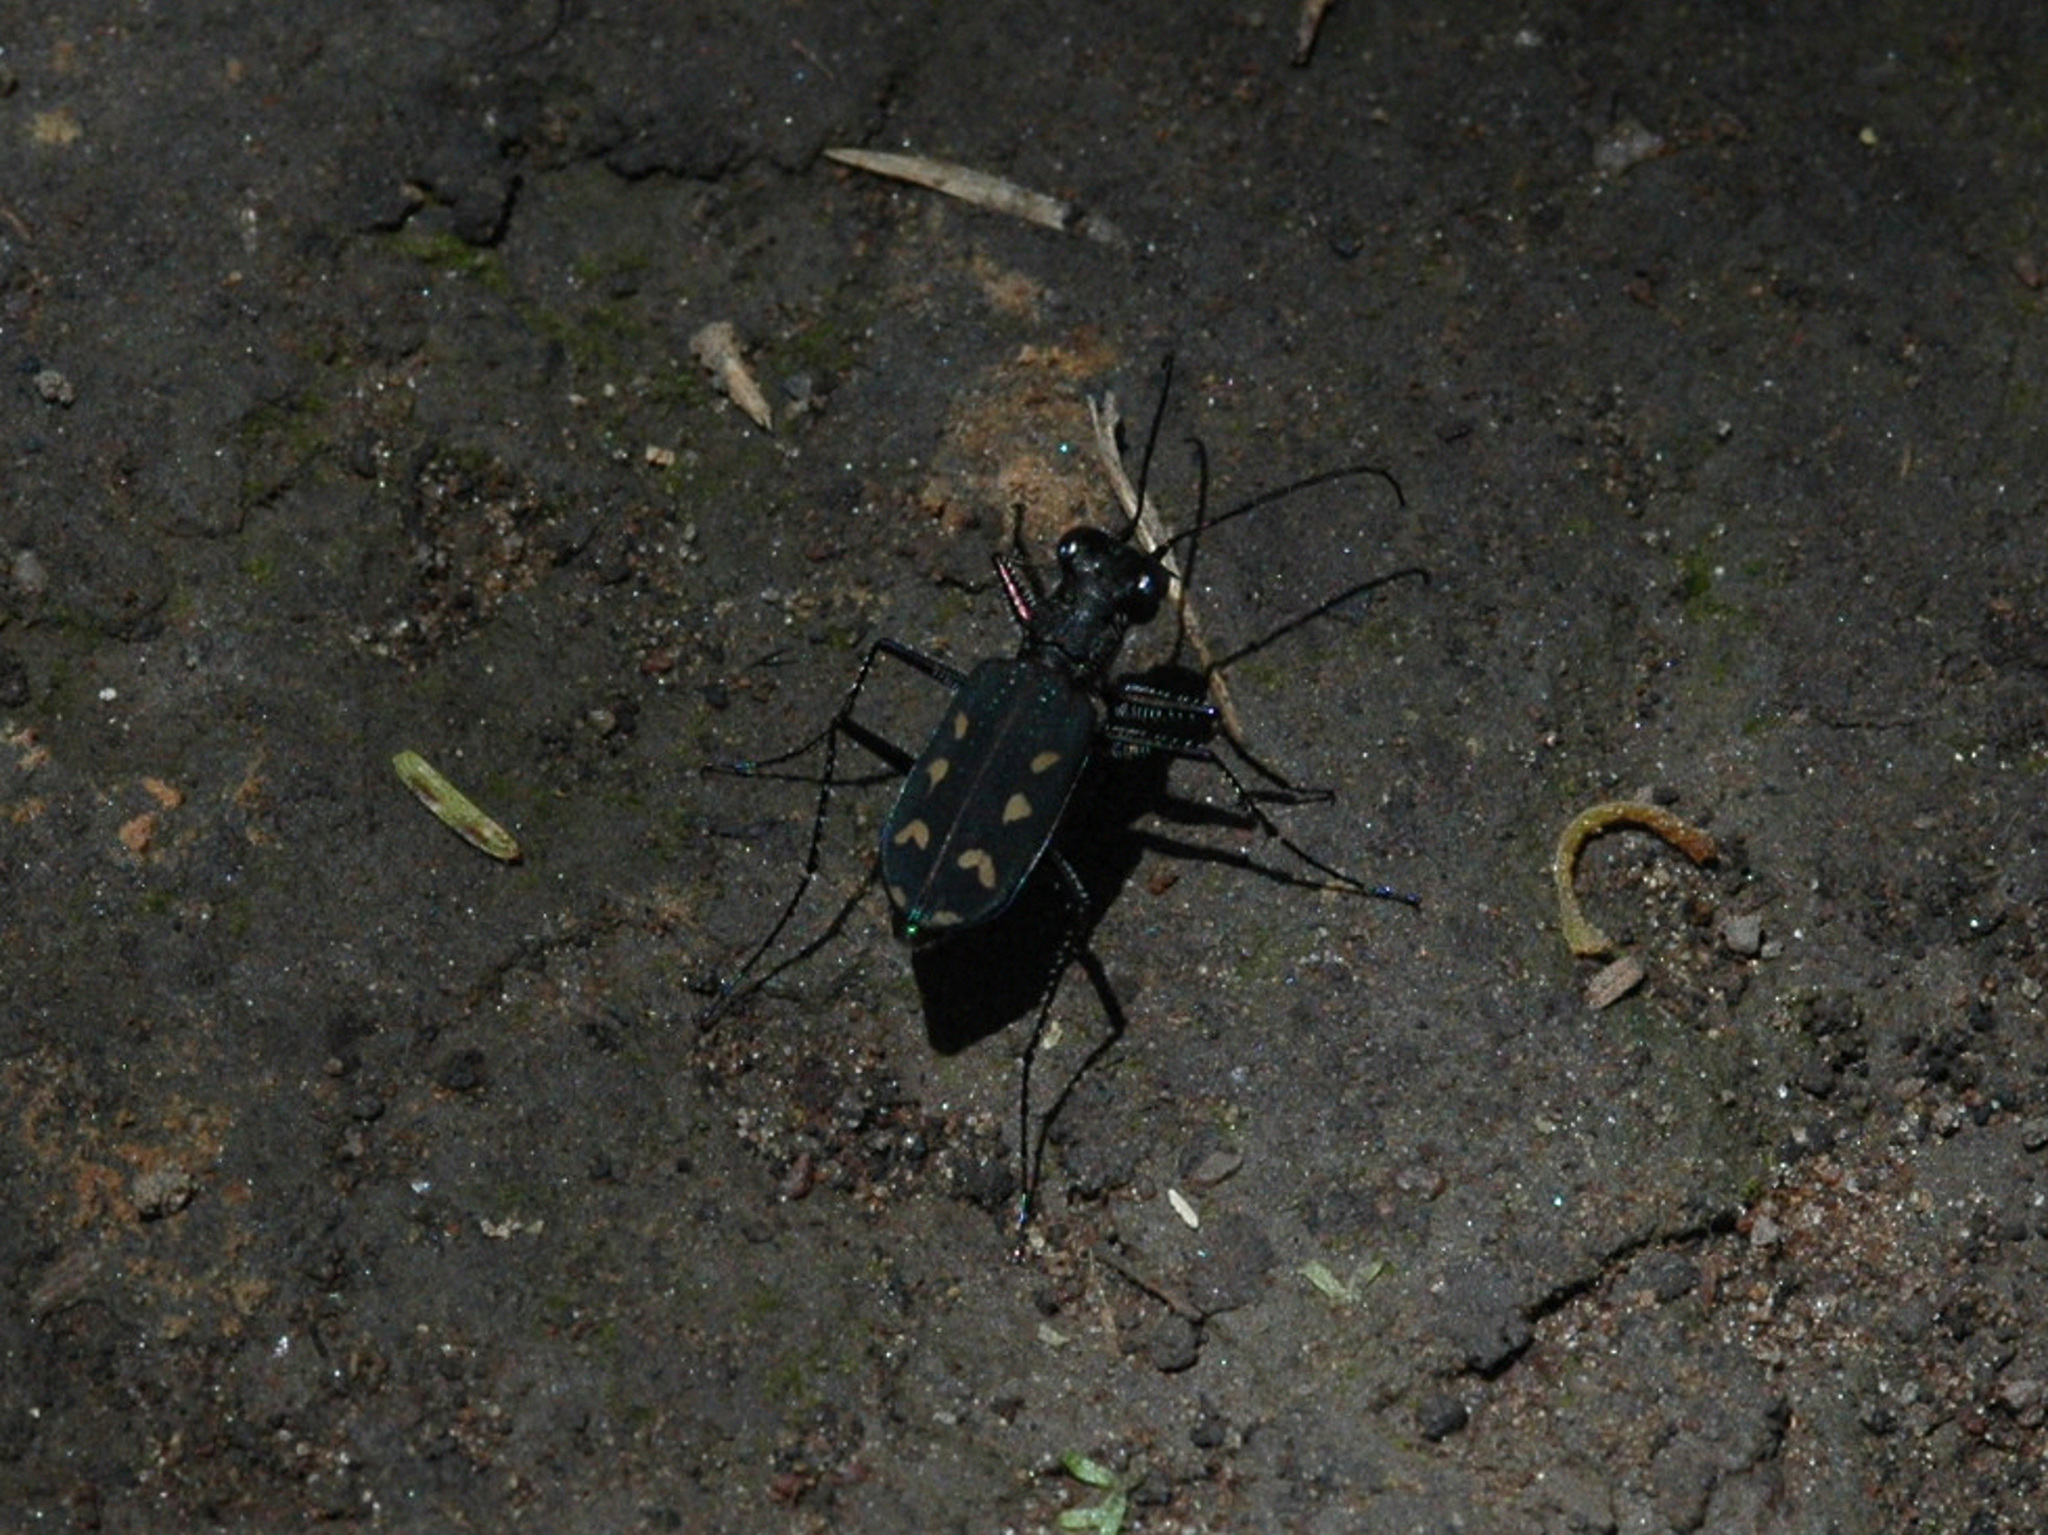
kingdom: Animalia
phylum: Arthropoda
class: Insecta
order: Coleoptera
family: Carabidae
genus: Cicindela
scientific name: Cicindela nysa
